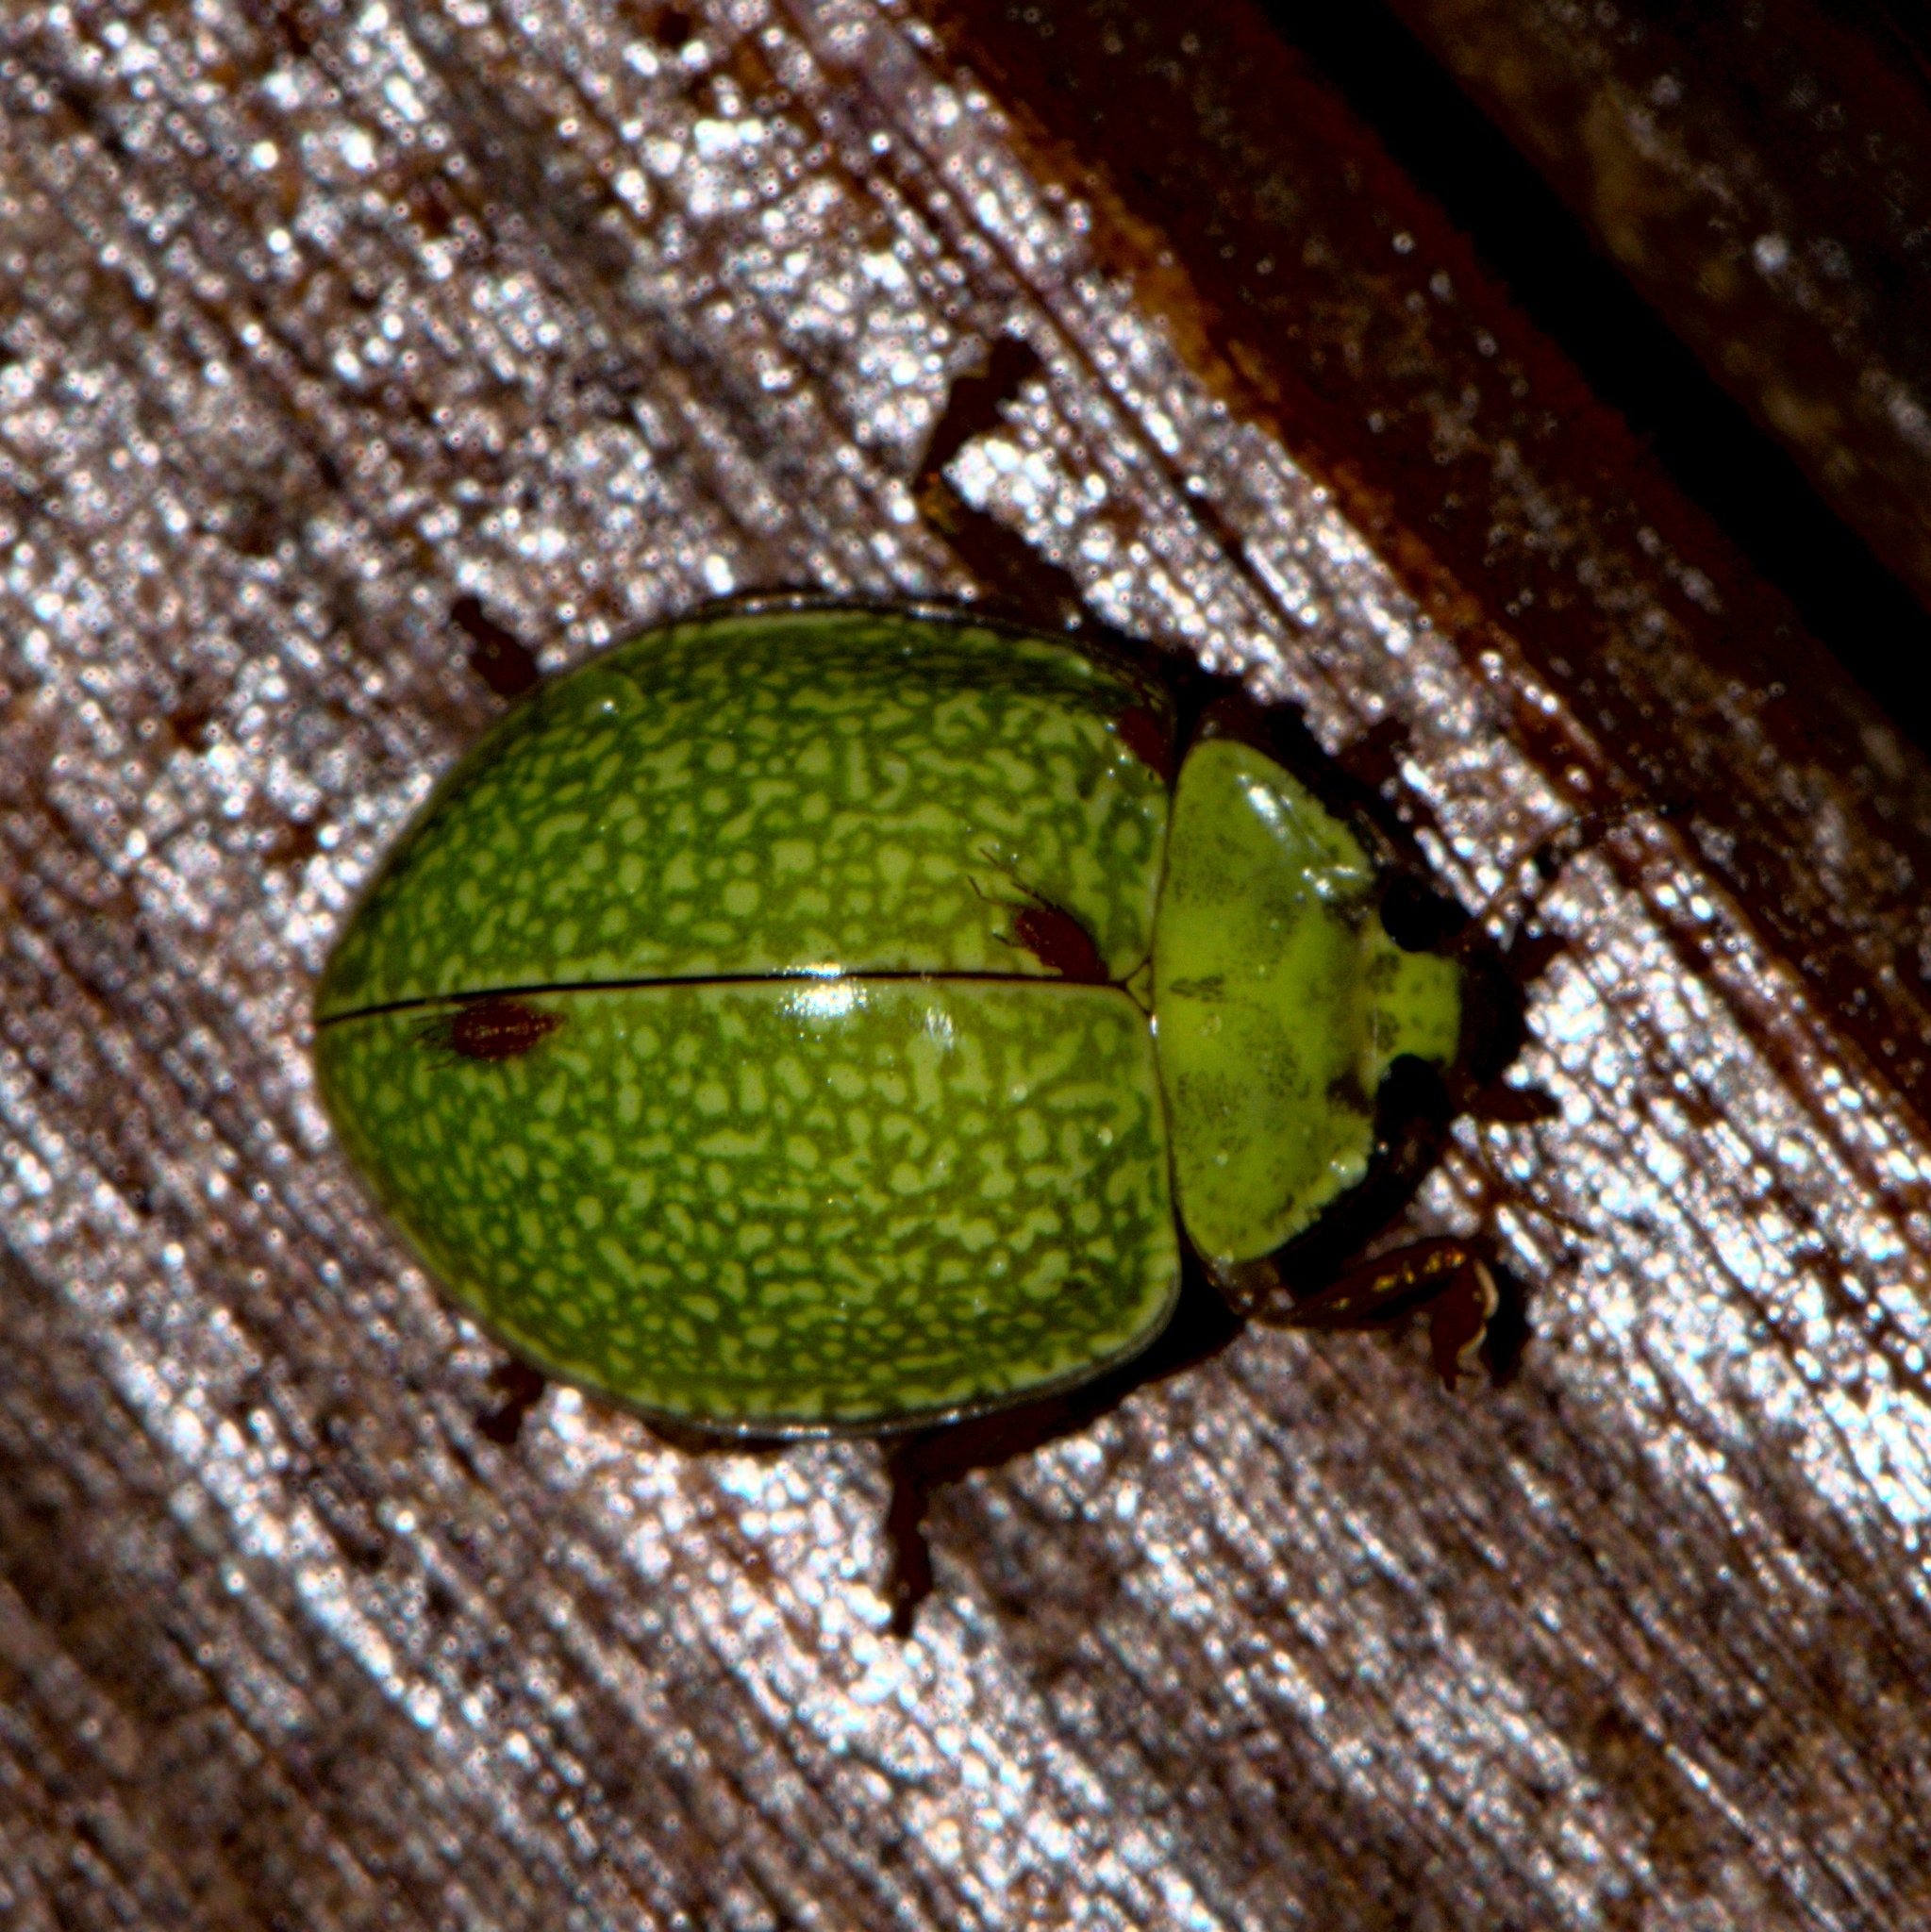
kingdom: Animalia
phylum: Arthropoda
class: Insecta
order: Coleoptera
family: Coccinellidae
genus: Calvia
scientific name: Calvia
